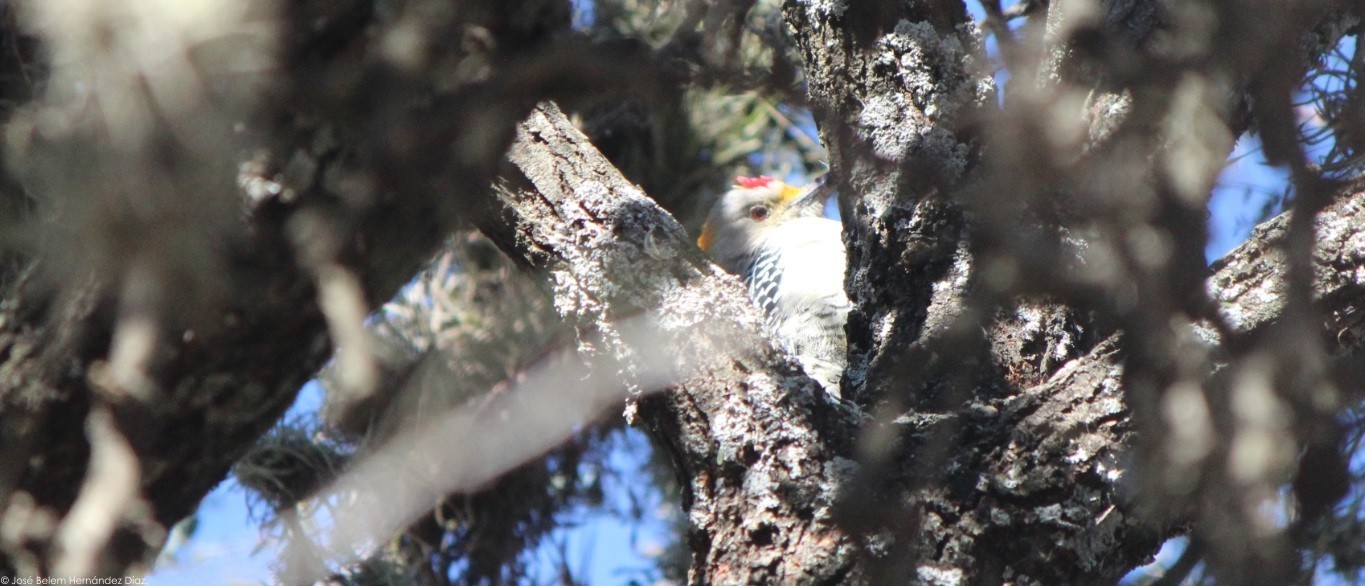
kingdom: Animalia
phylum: Chordata
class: Aves
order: Piciformes
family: Picidae
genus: Melanerpes
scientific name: Melanerpes aurifrons
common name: Golden-fronted woodpecker
